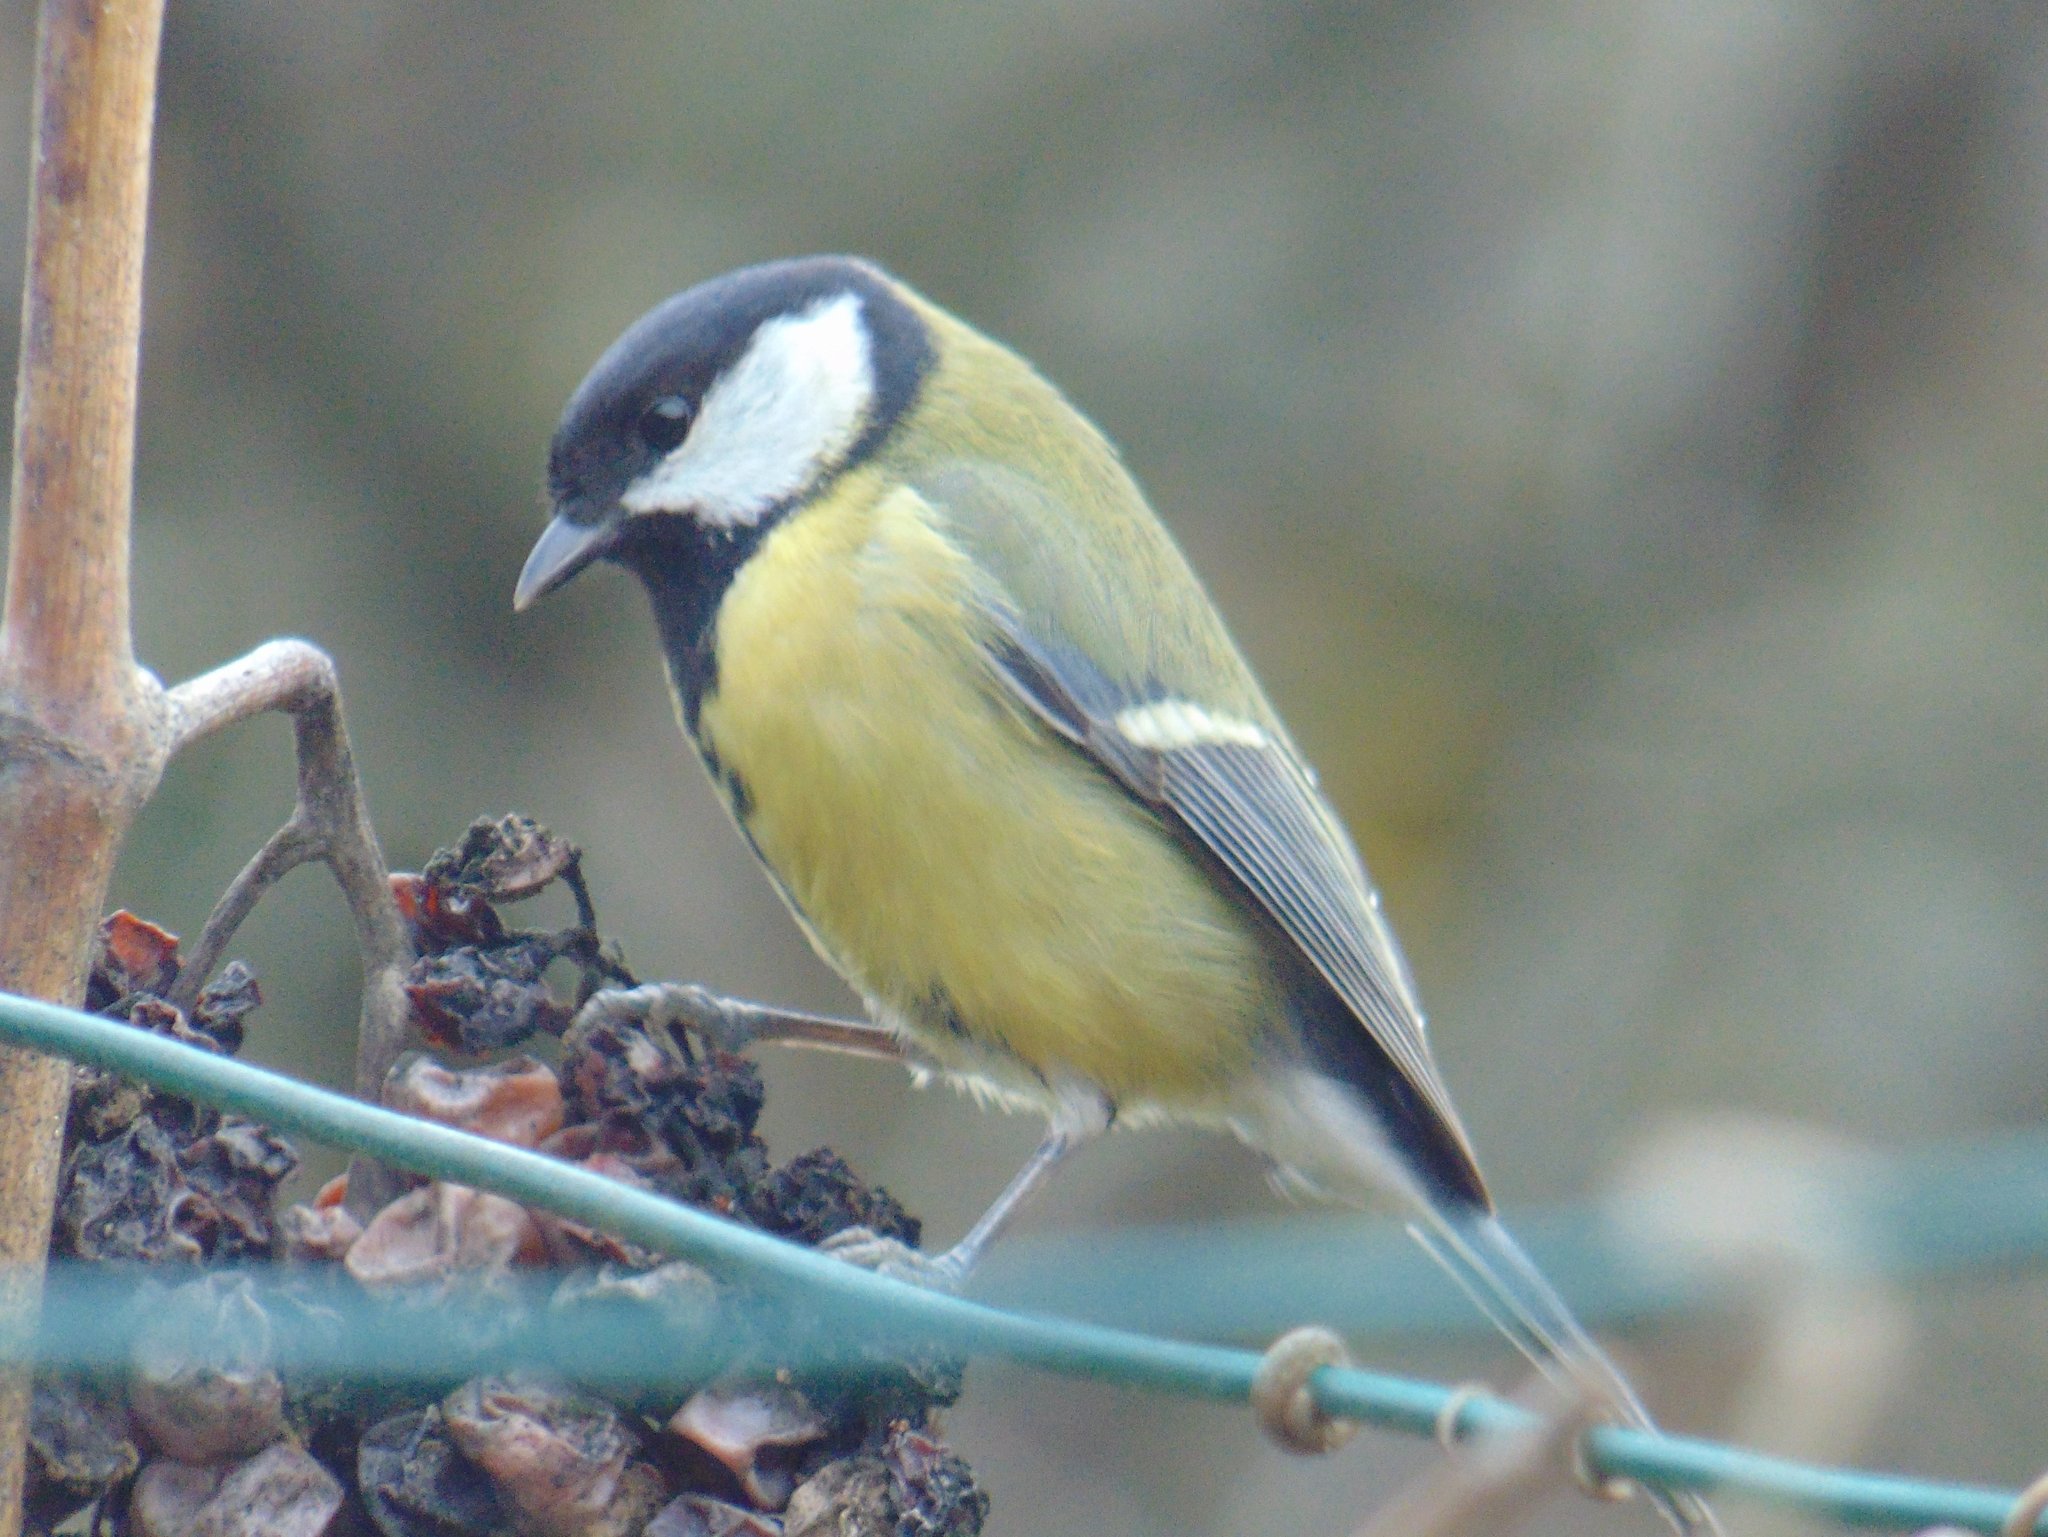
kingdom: Animalia
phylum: Chordata
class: Aves
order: Passeriformes
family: Paridae
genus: Parus
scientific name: Parus major
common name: Great tit
